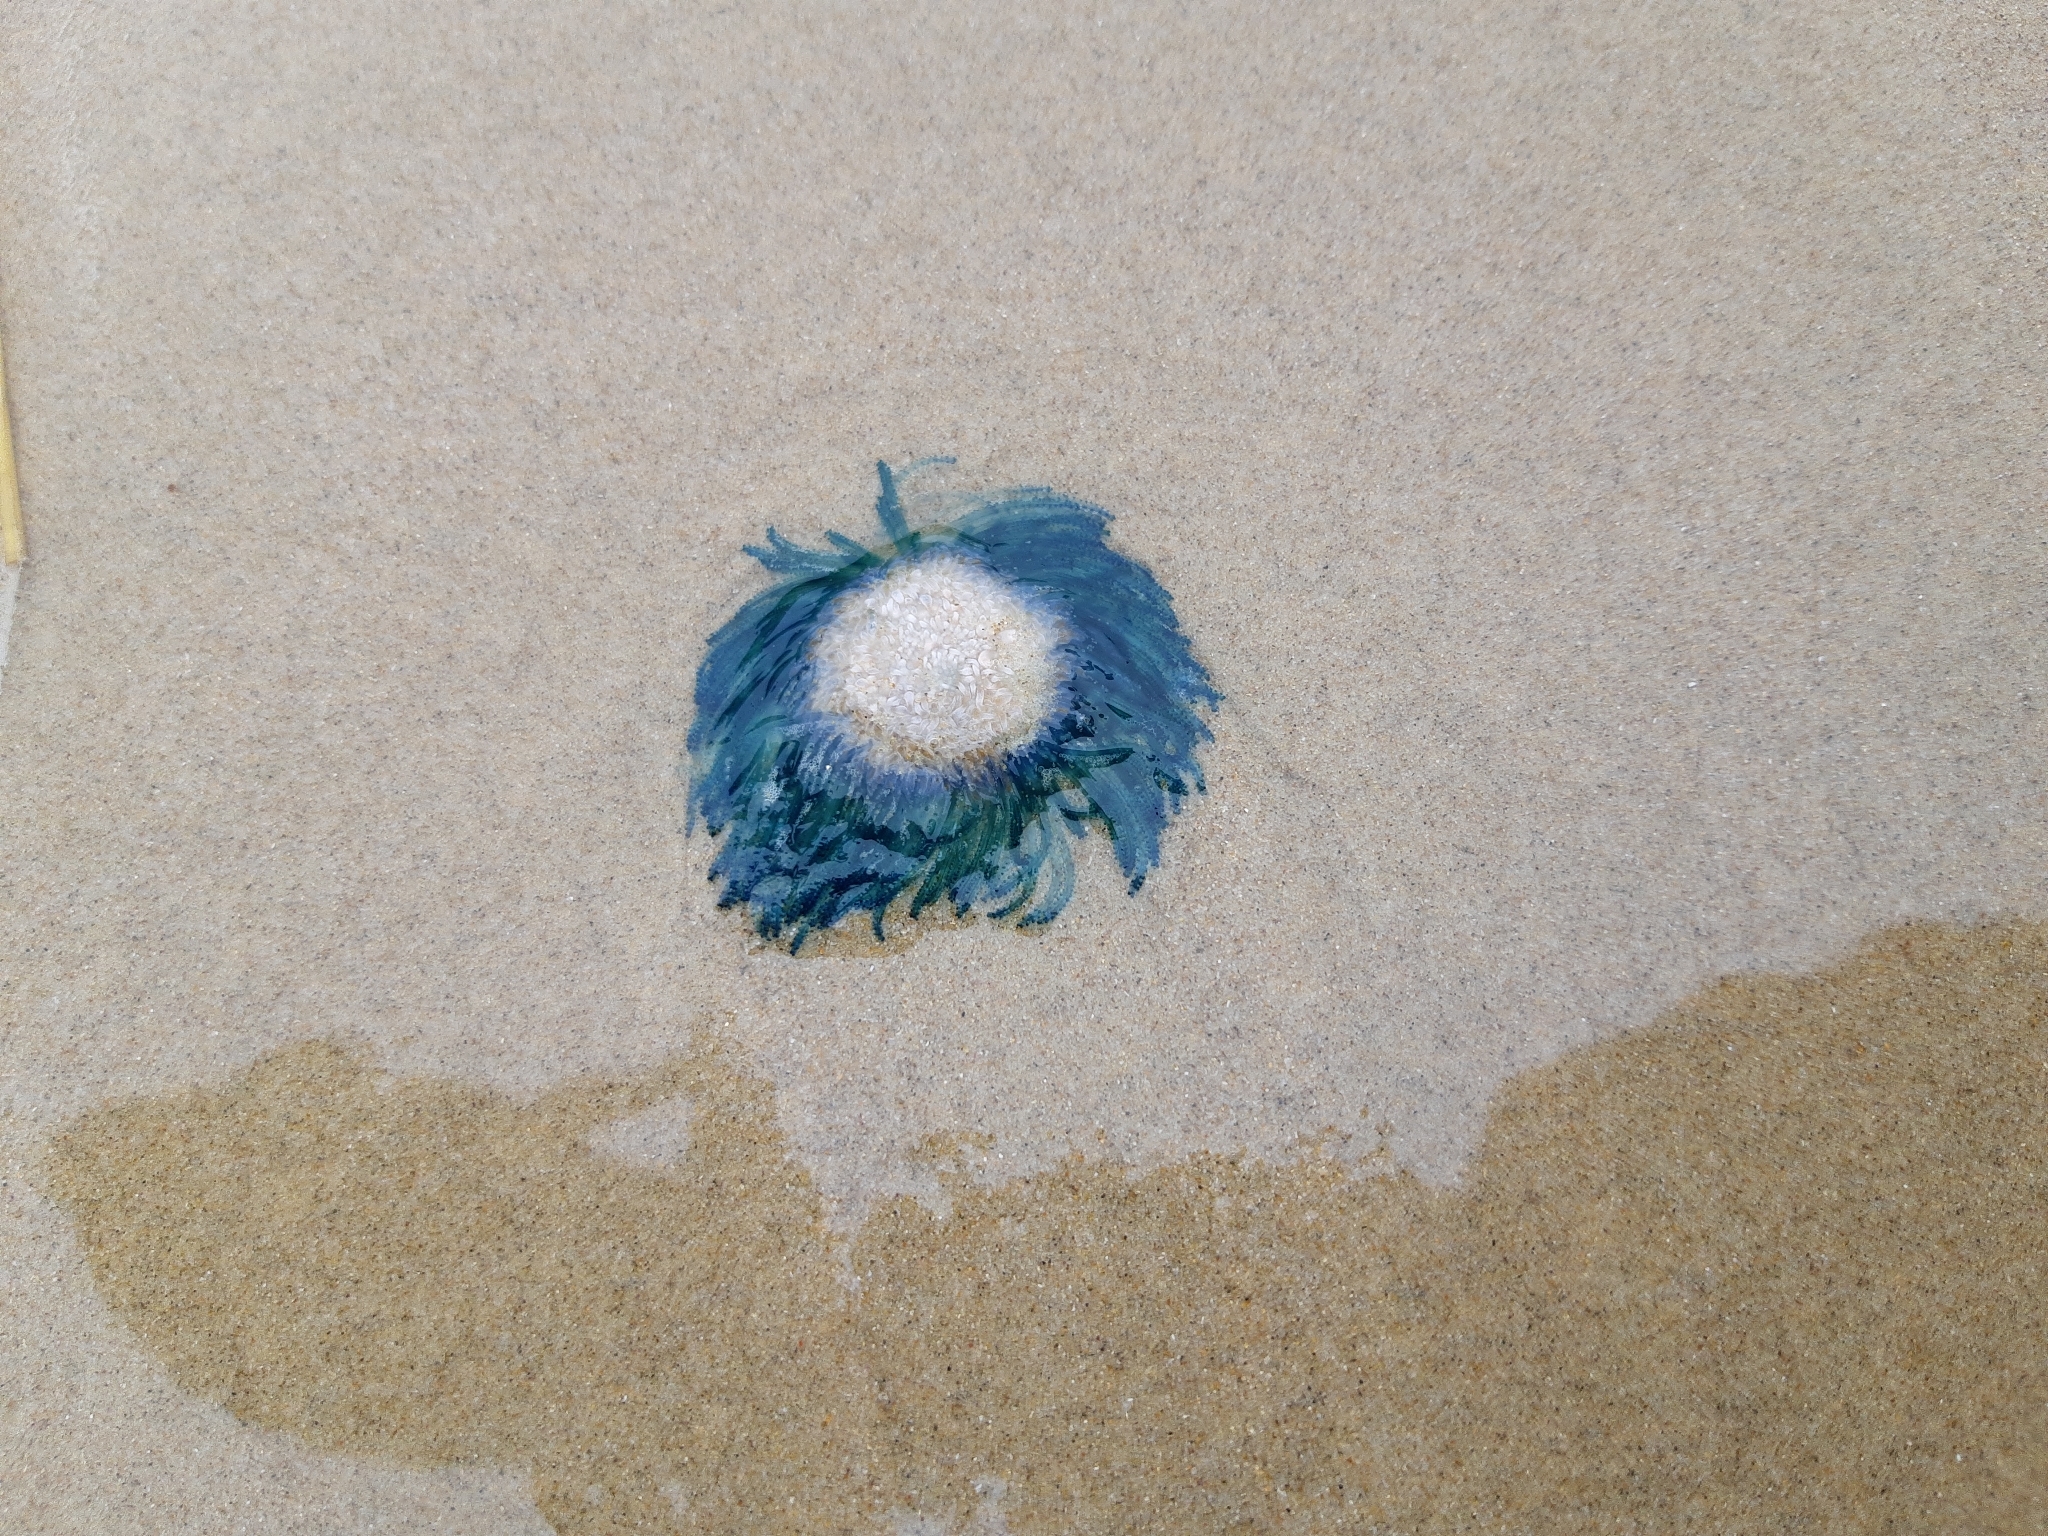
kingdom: Animalia
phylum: Cnidaria
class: Hydrozoa
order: Anthoathecata
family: Porpitidae
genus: Porpita
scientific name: Porpita porpita
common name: Blue button
